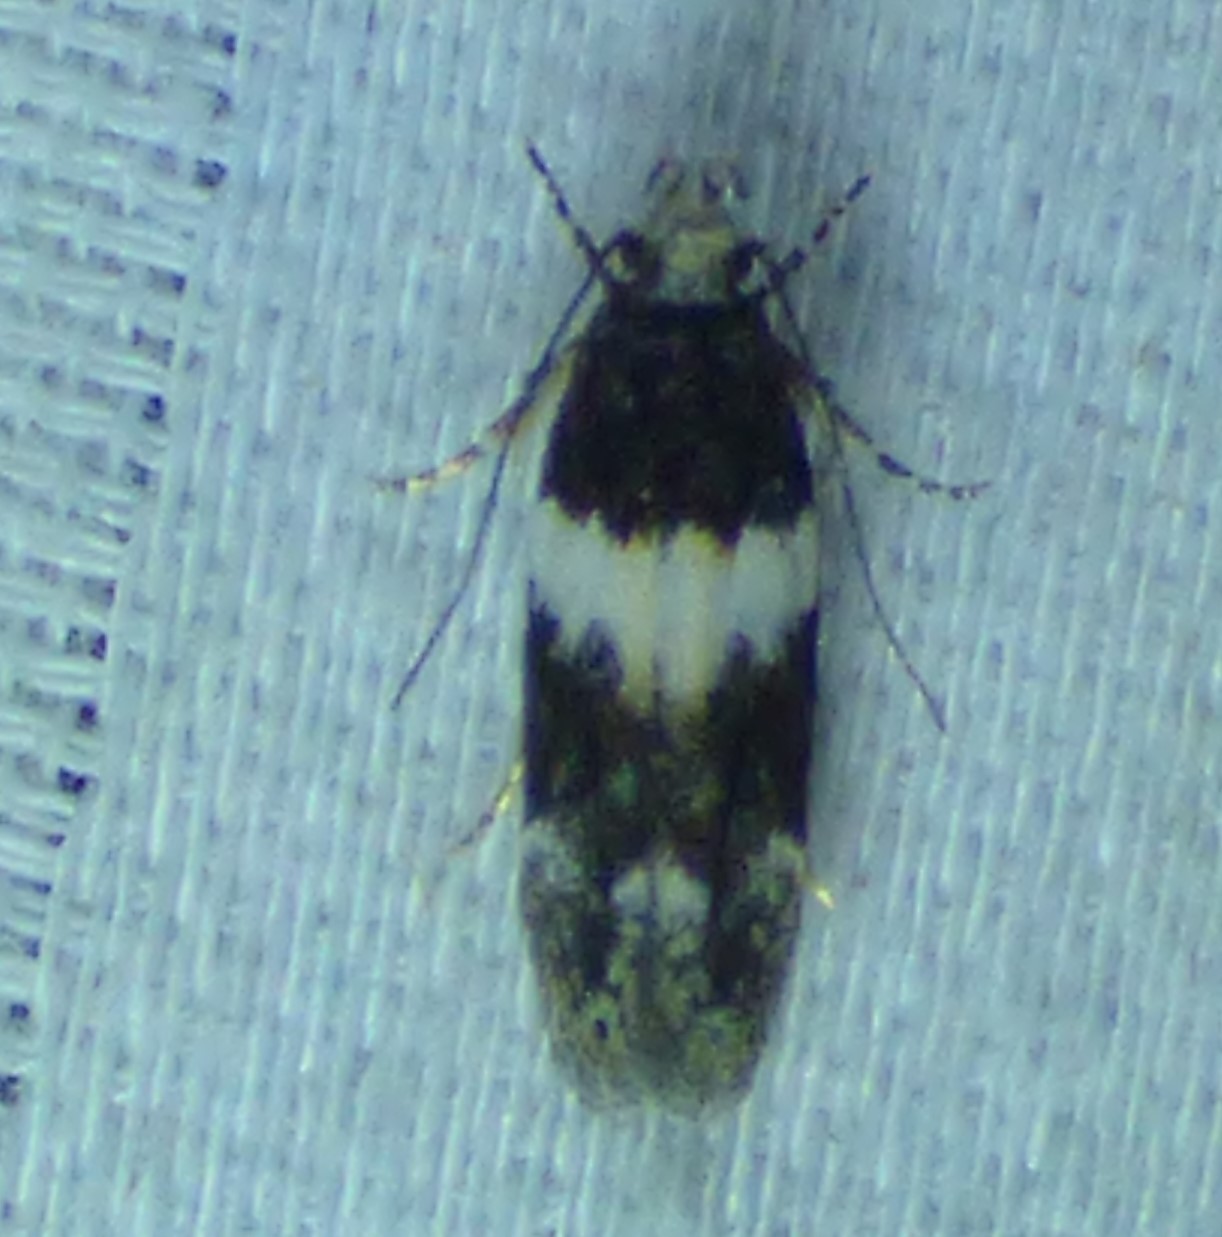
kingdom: Animalia
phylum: Arthropoda
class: Insecta
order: Lepidoptera
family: Gelechiidae
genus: Pubitelphusa
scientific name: Pubitelphusa latifasciella
